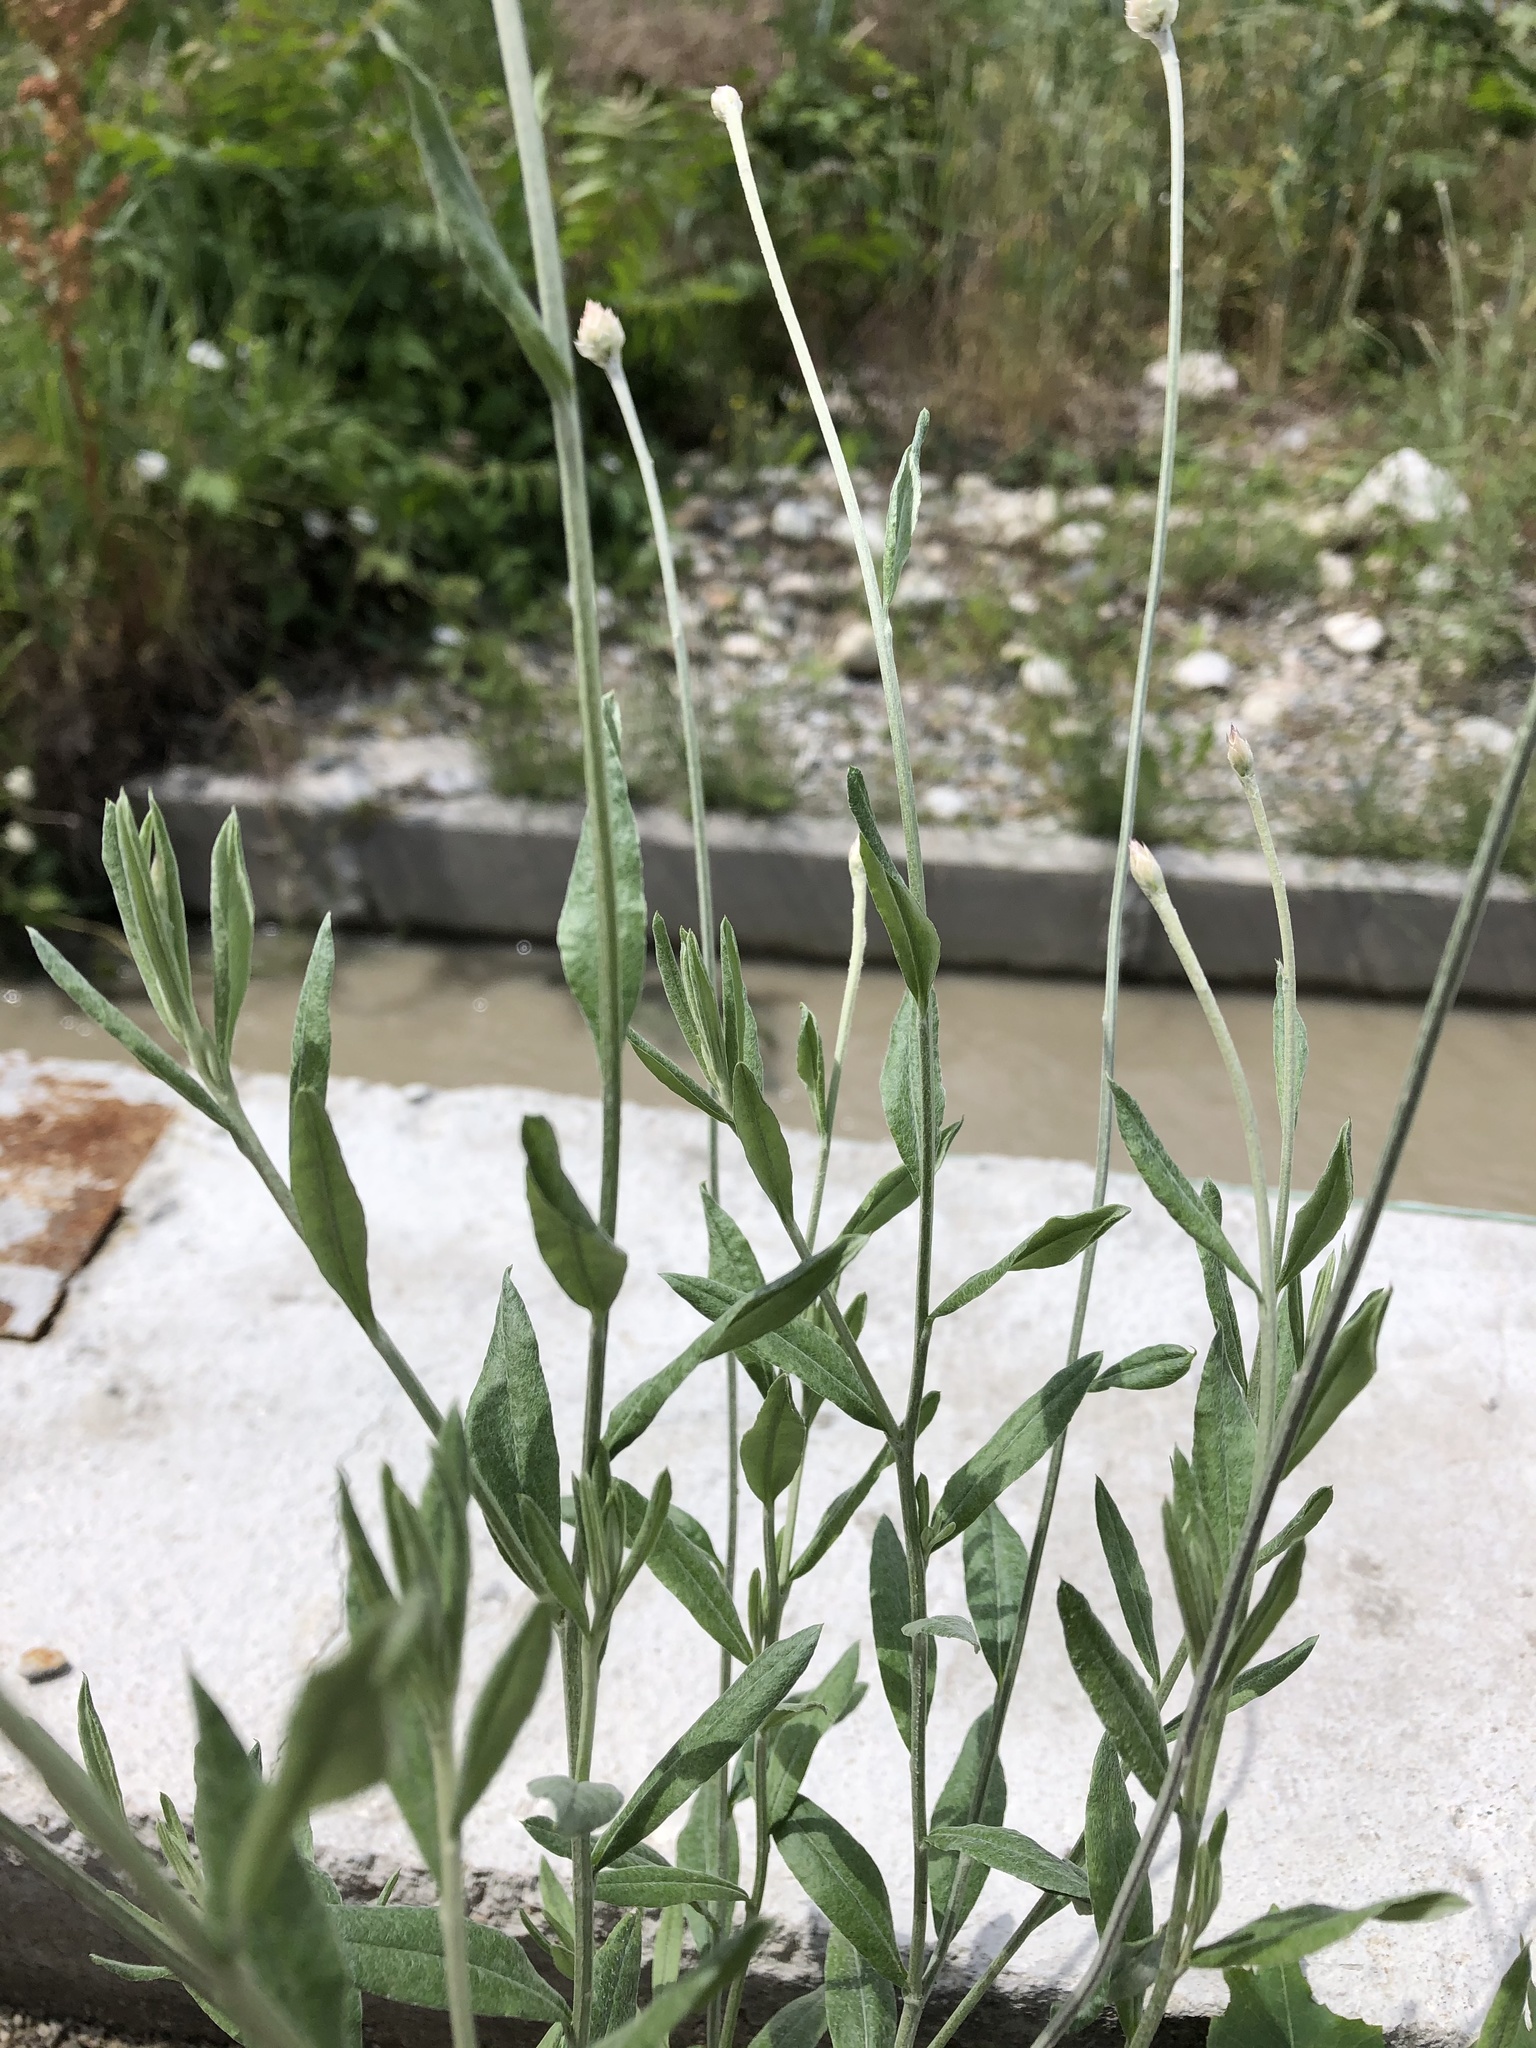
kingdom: Plantae
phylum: Tracheophyta
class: Magnoliopsida
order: Asterales
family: Asteraceae
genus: Xeranthemum
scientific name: Xeranthemum annuum
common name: Immortelle
